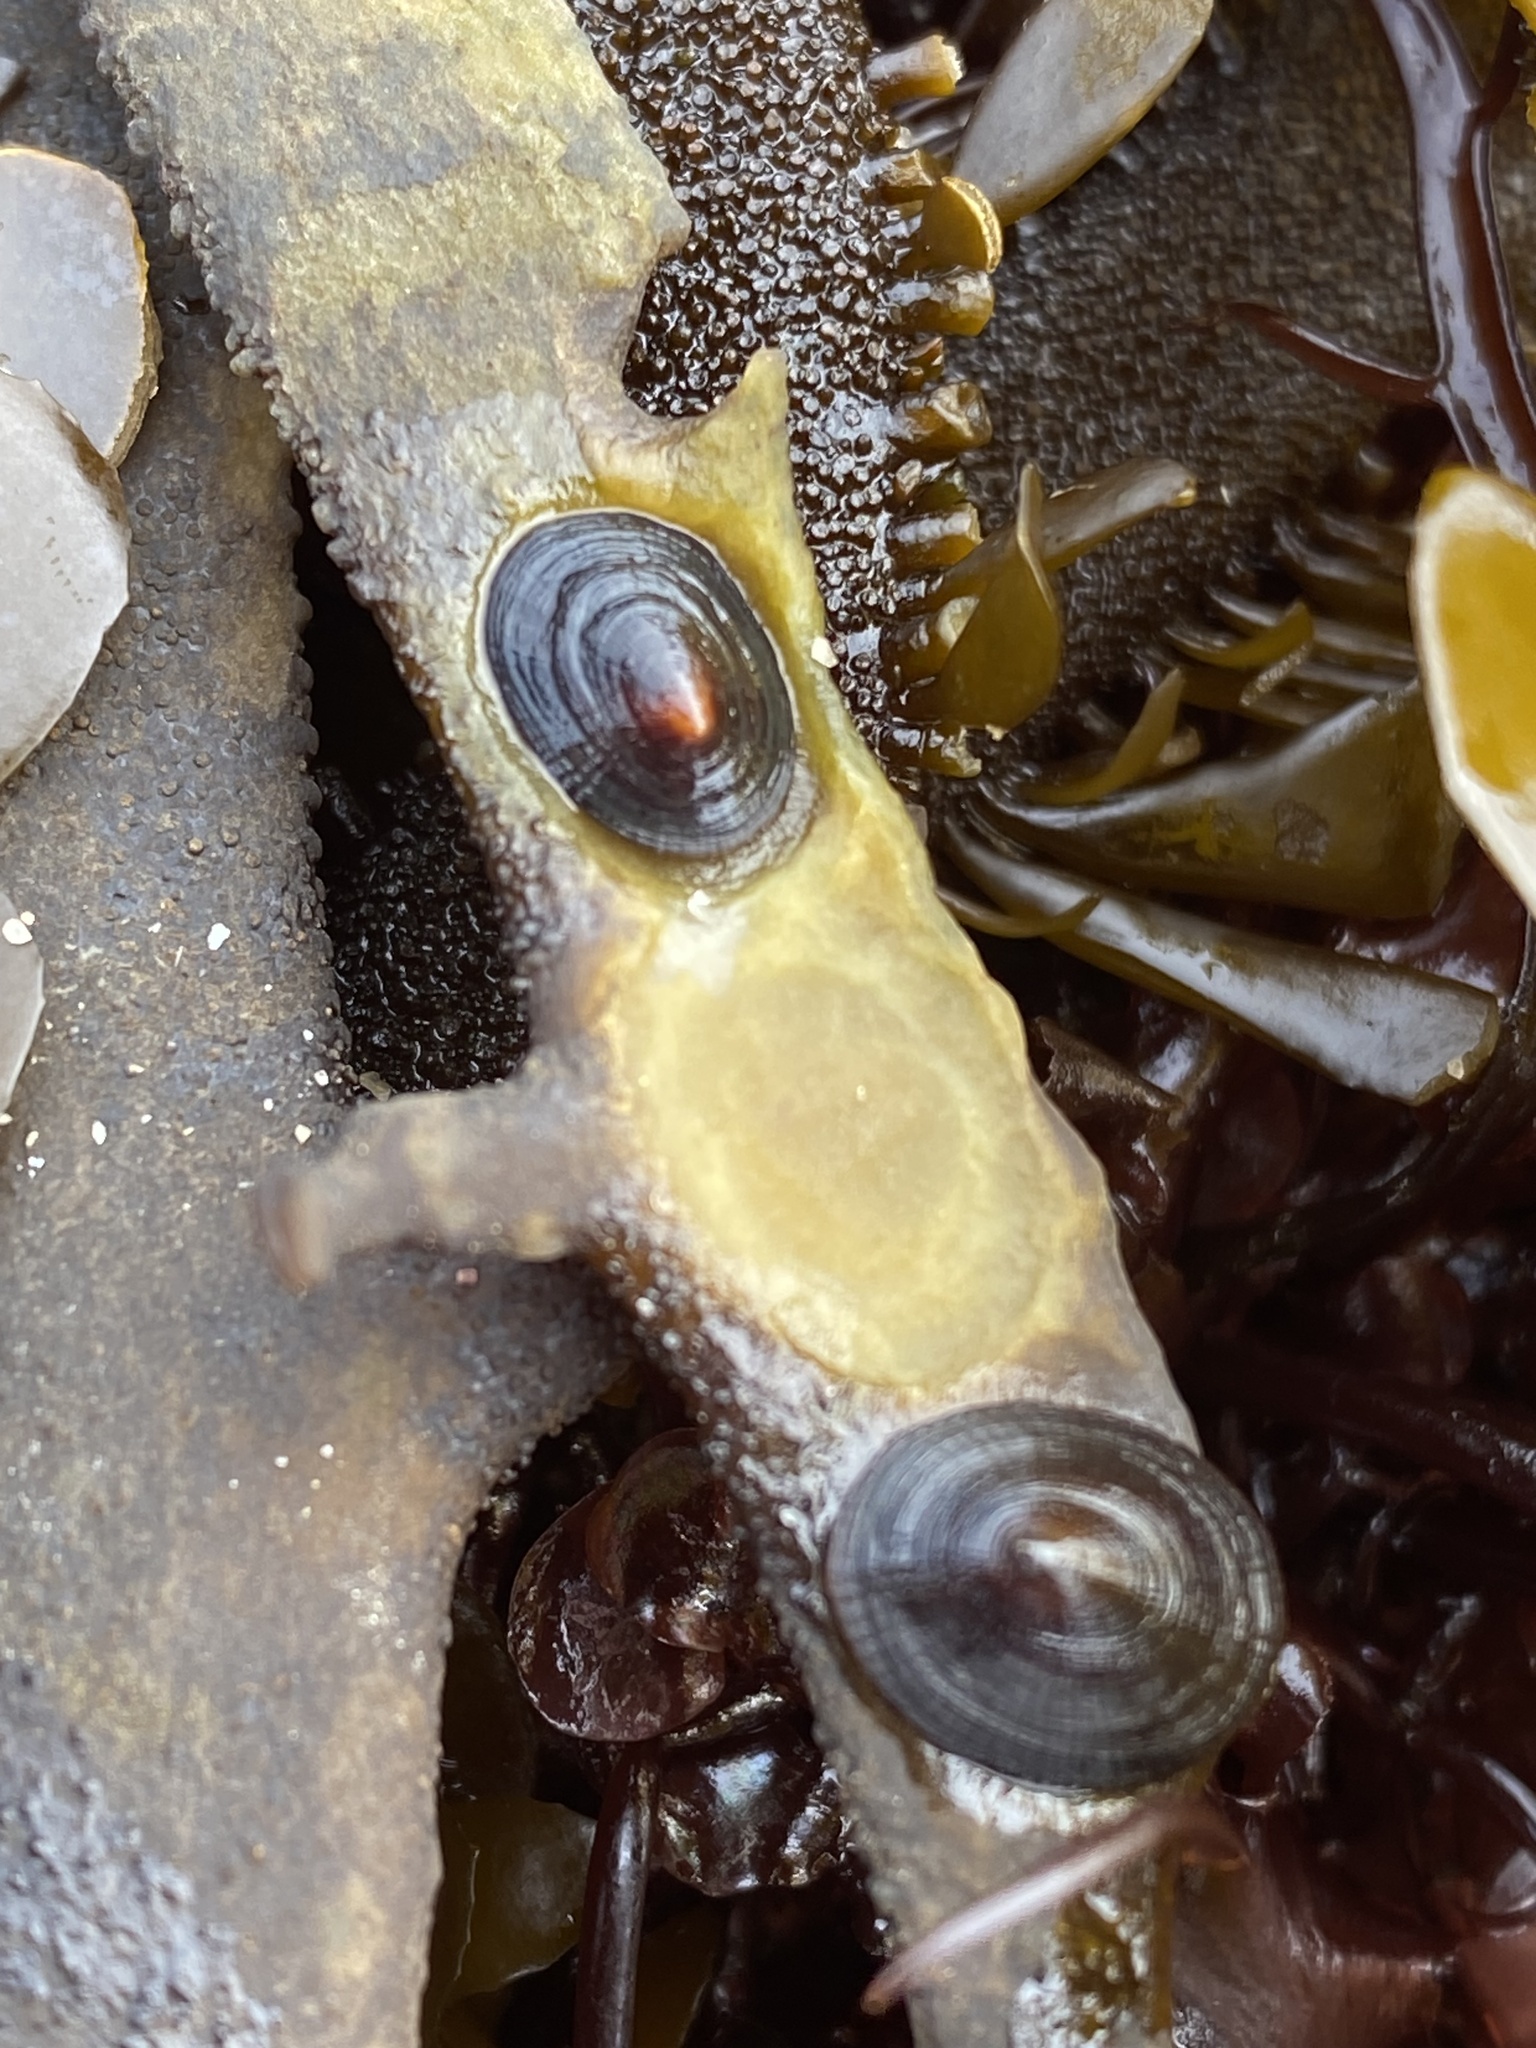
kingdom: Animalia
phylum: Mollusca
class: Gastropoda
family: Lottiidae
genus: Discurria
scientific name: Discurria insessa
